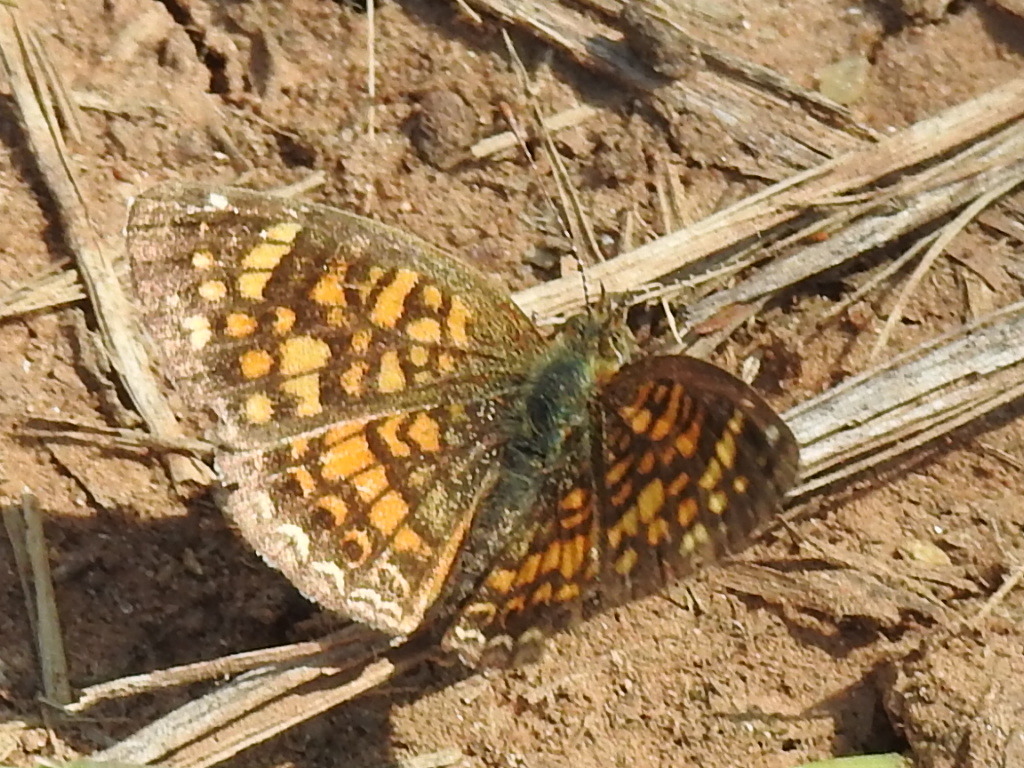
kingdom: Animalia
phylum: Arthropoda
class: Insecta
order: Lepidoptera
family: Nymphalidae
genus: Phyciodes
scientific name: Phyciodes vesta
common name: Vesta crescent
